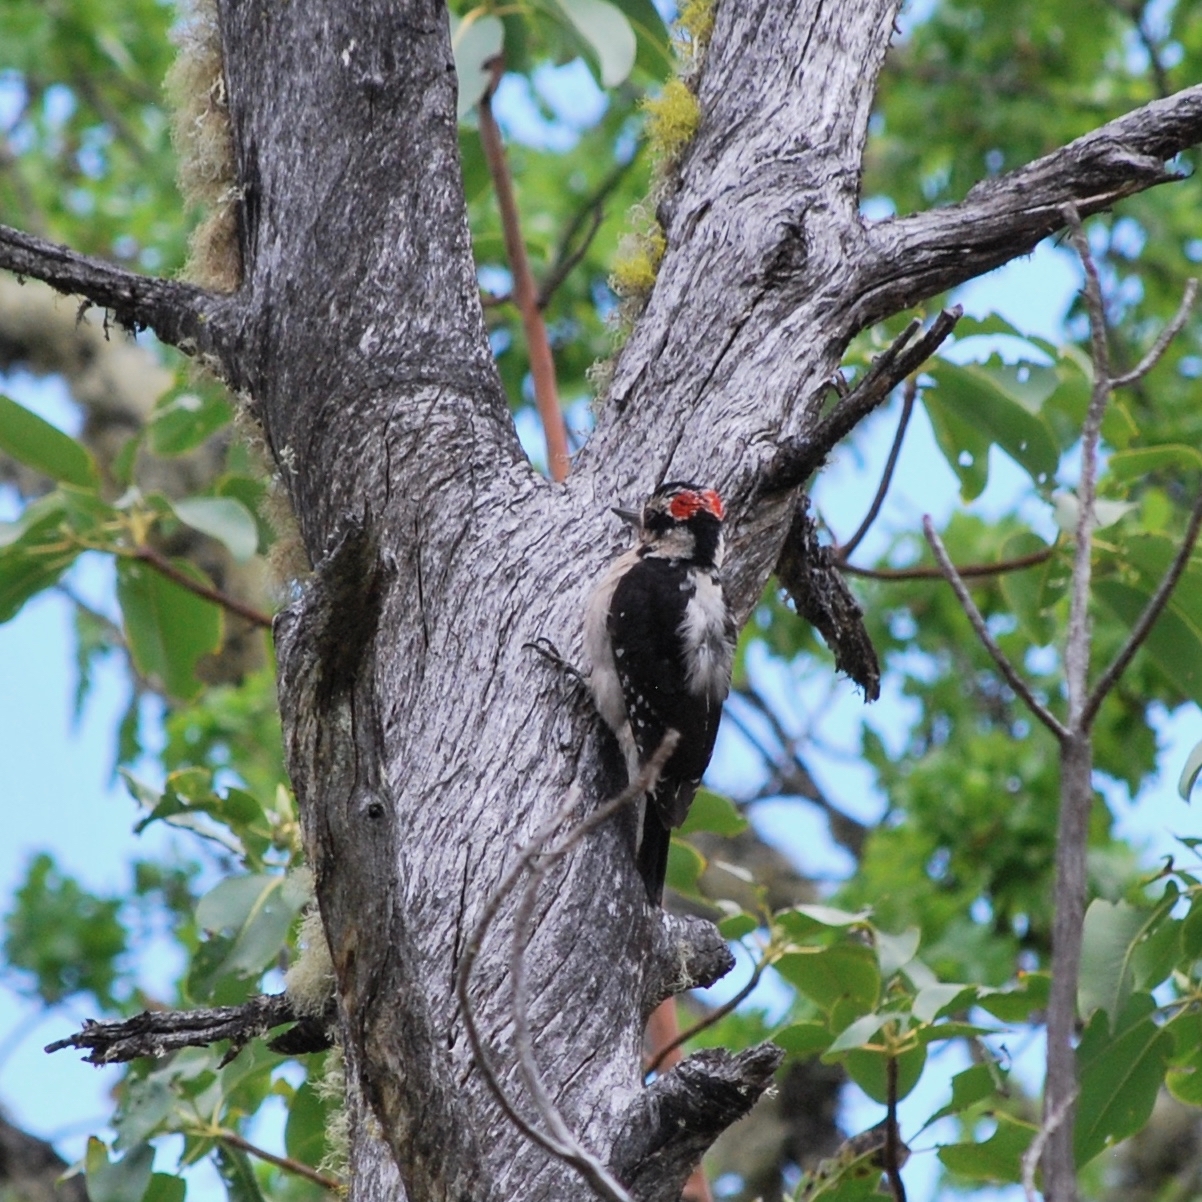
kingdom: Animalia
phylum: Chordata
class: Aves
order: Piciformes
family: Picidae
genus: Leuconotopicus
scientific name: Leuconotopicus villosus
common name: Hairy woodpecker
